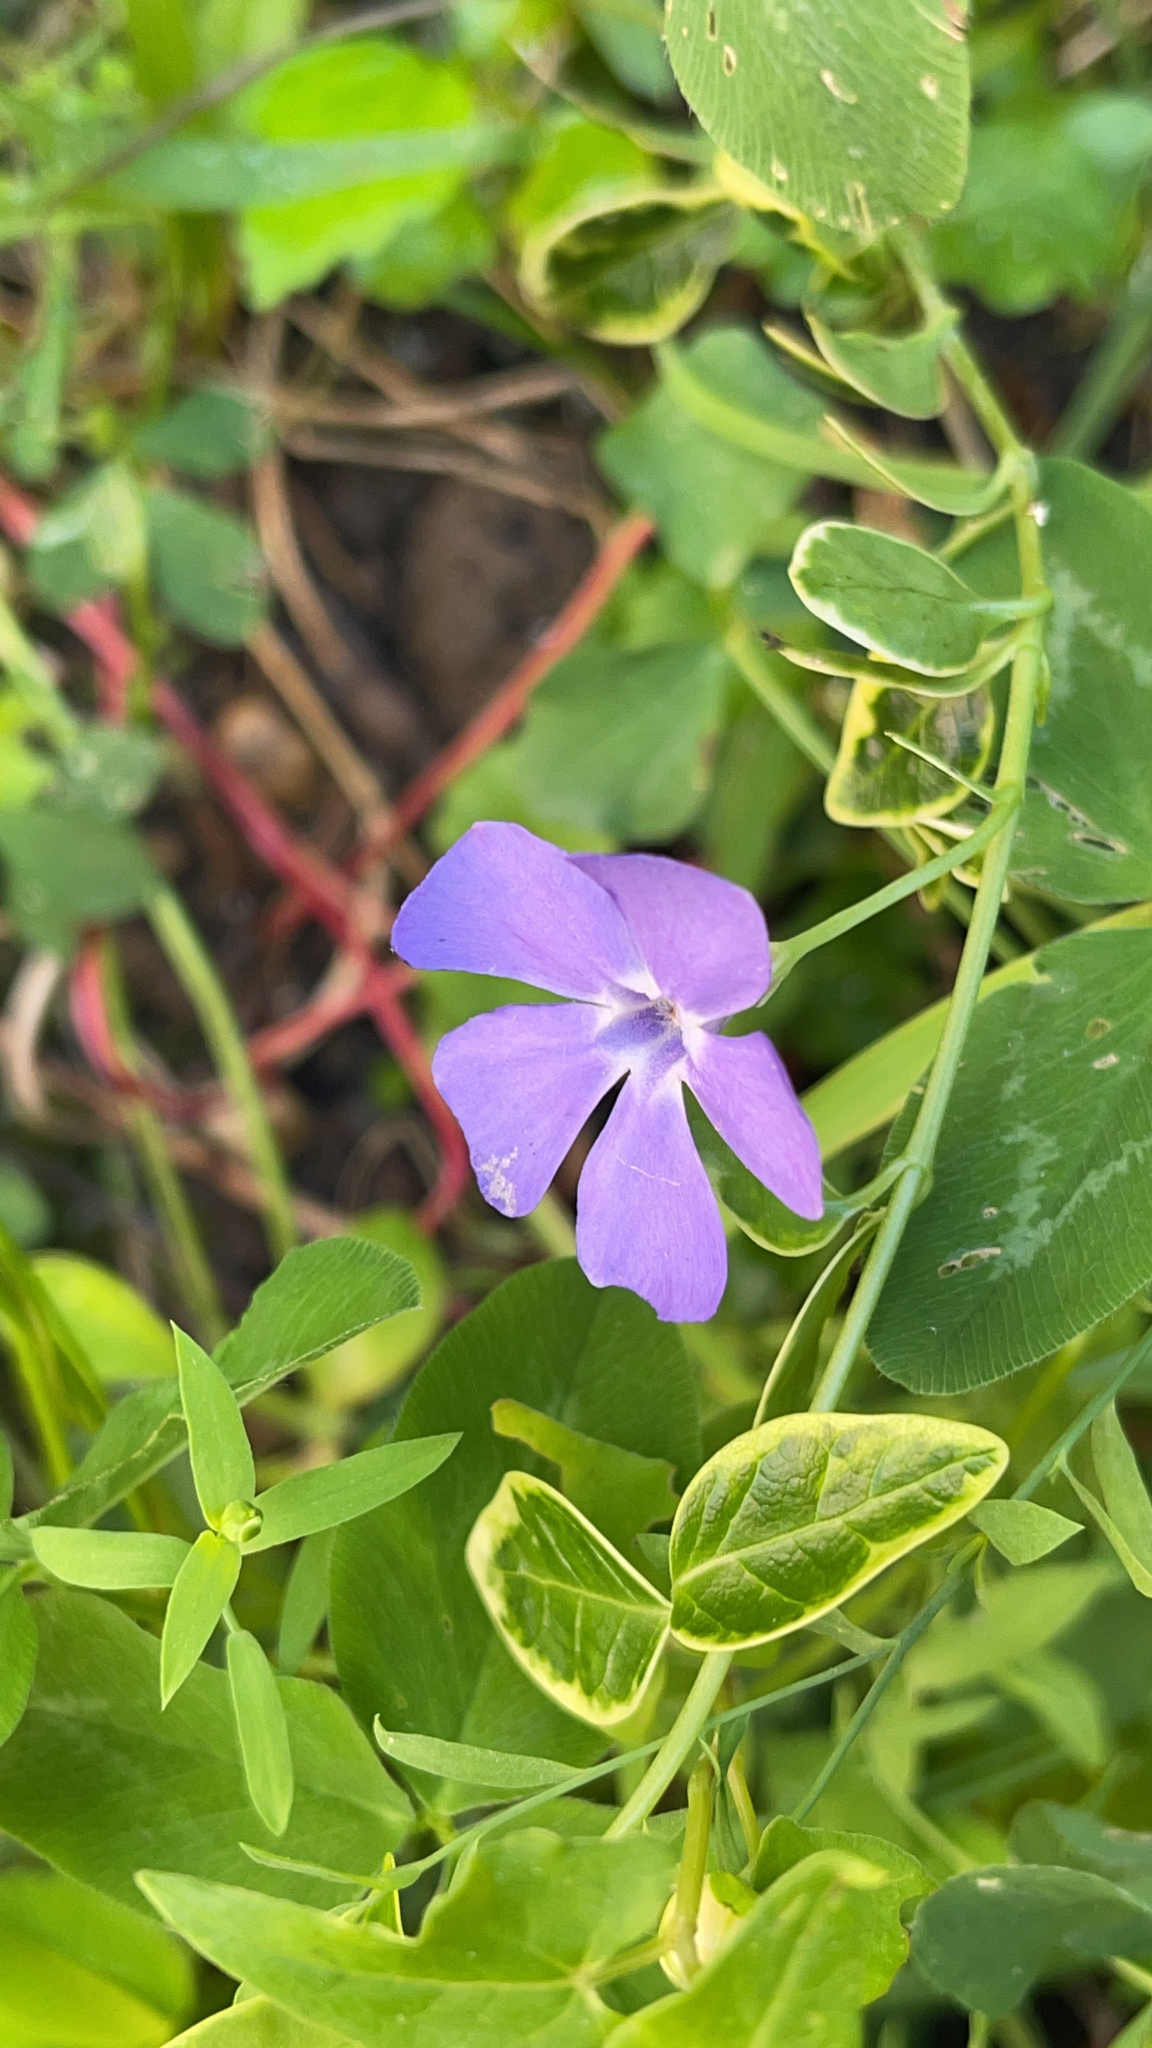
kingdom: Plantae
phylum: Tracheophyta
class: Magnoliopsida
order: Gentianales
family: Apocynaceae
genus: Vinca
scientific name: Vinca minor
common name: Lesser periwinkle
